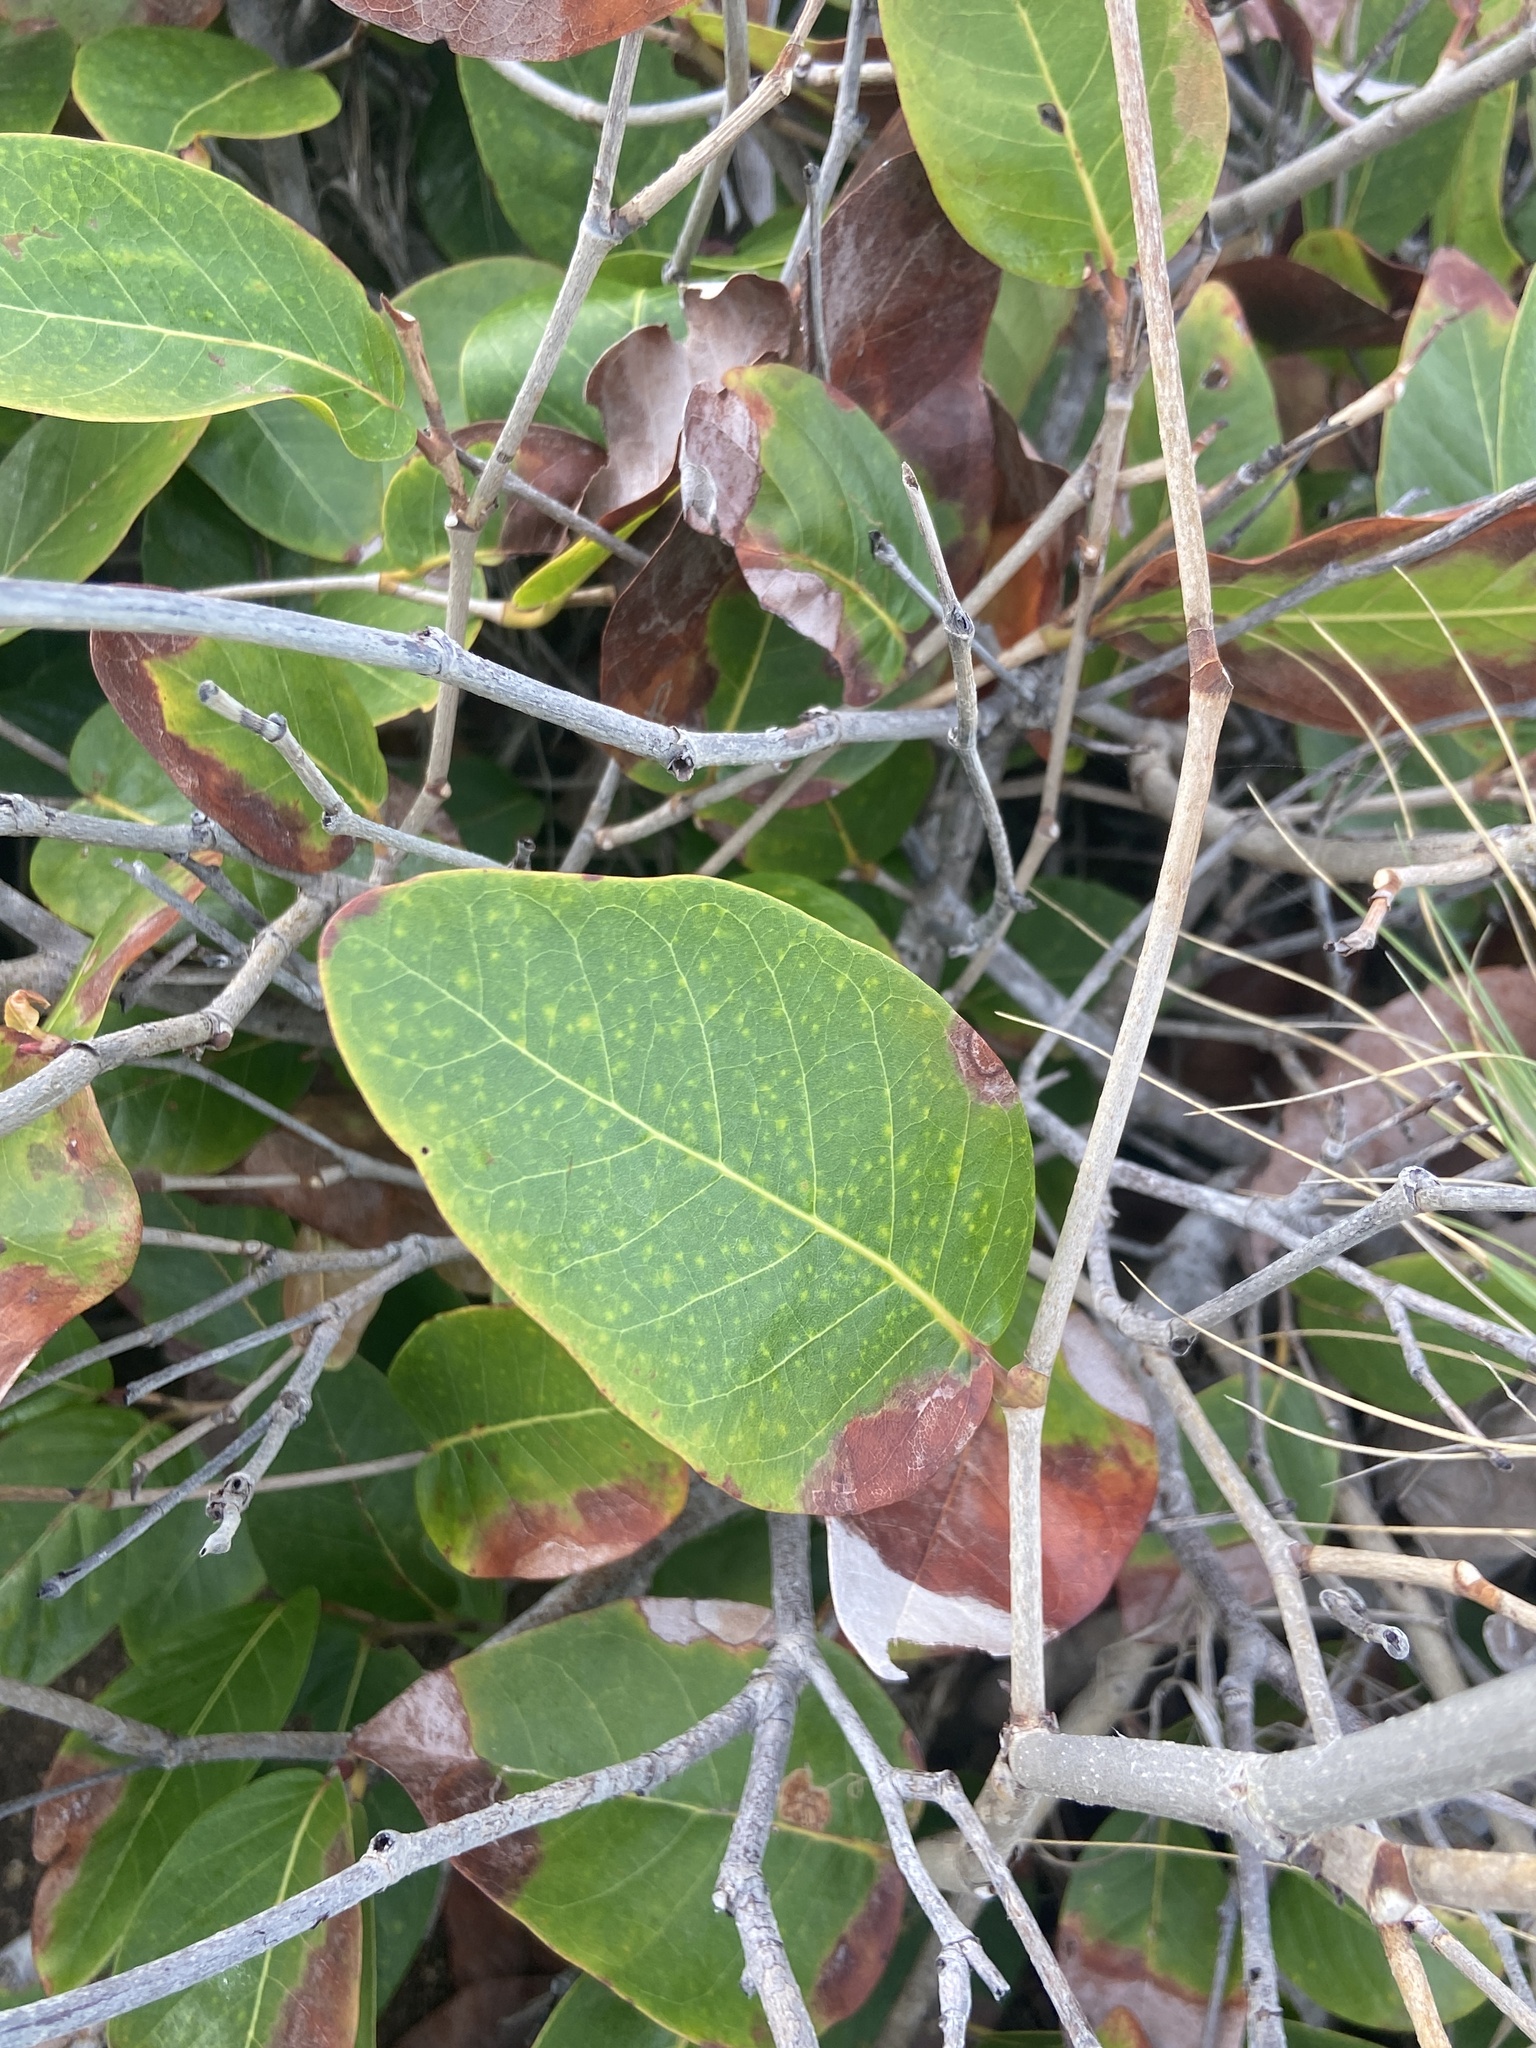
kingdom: Plantae
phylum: Tracheophyta
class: Magnoliopsida
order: Caryophyllales
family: Polygonaceae
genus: Coccoloba
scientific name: Coccoloba
